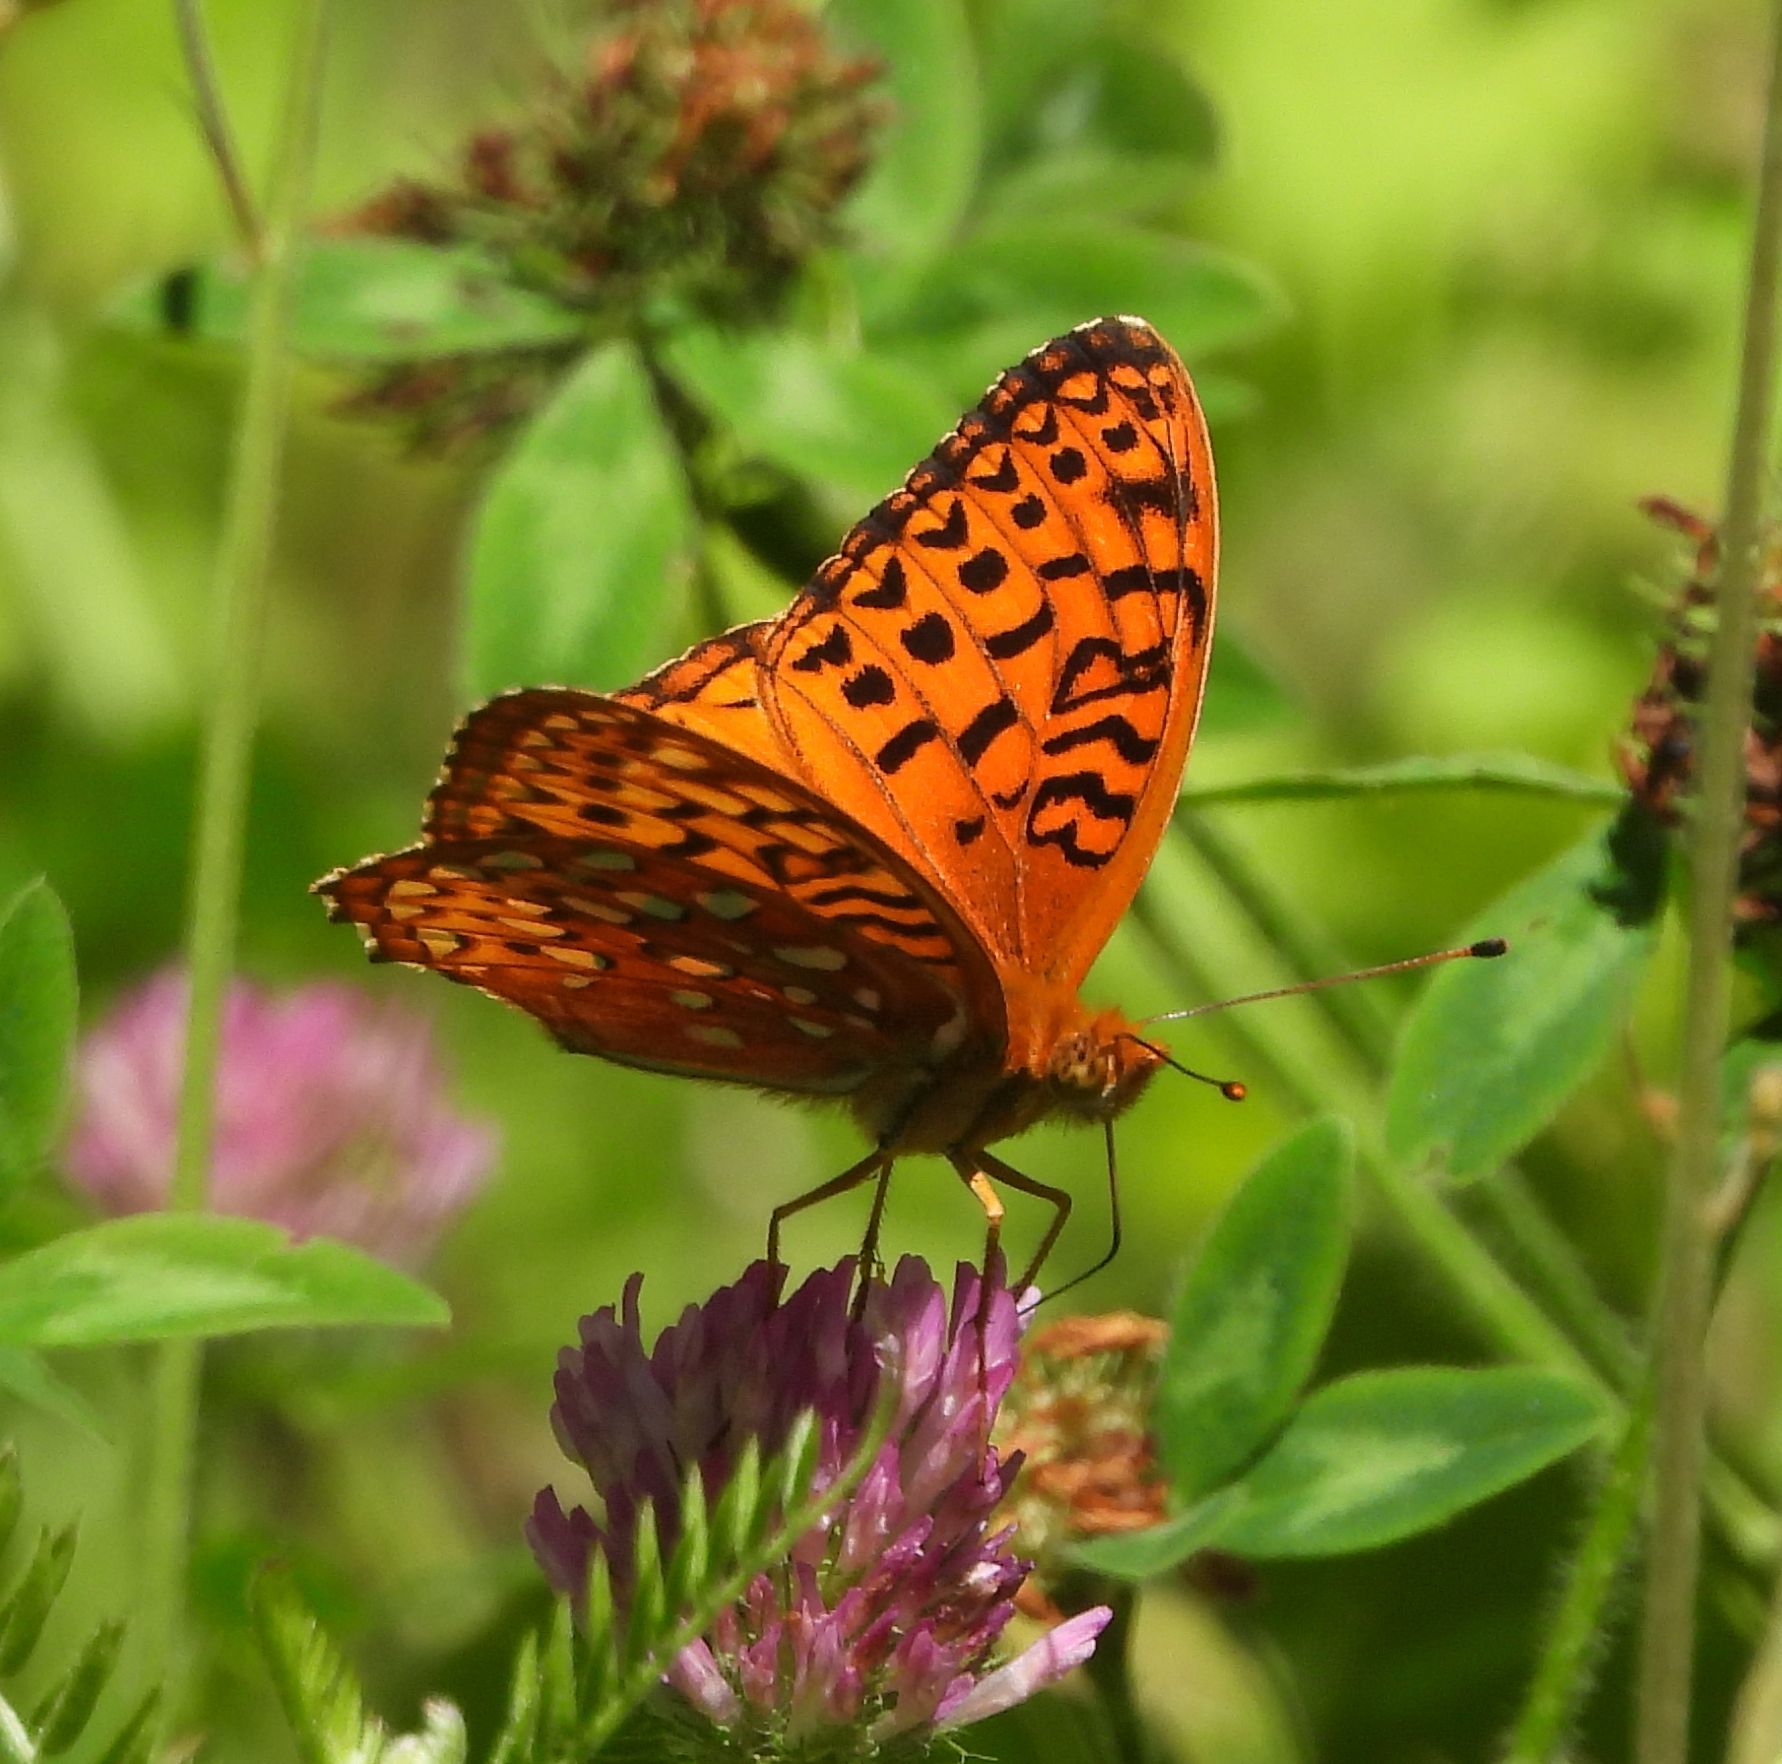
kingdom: Animalia
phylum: Arthropoda
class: Insecta
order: Lepidoptera
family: Nymphalidae
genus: Speyeria
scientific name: Speyeria aphrodite
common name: Aphrodite friitllary
